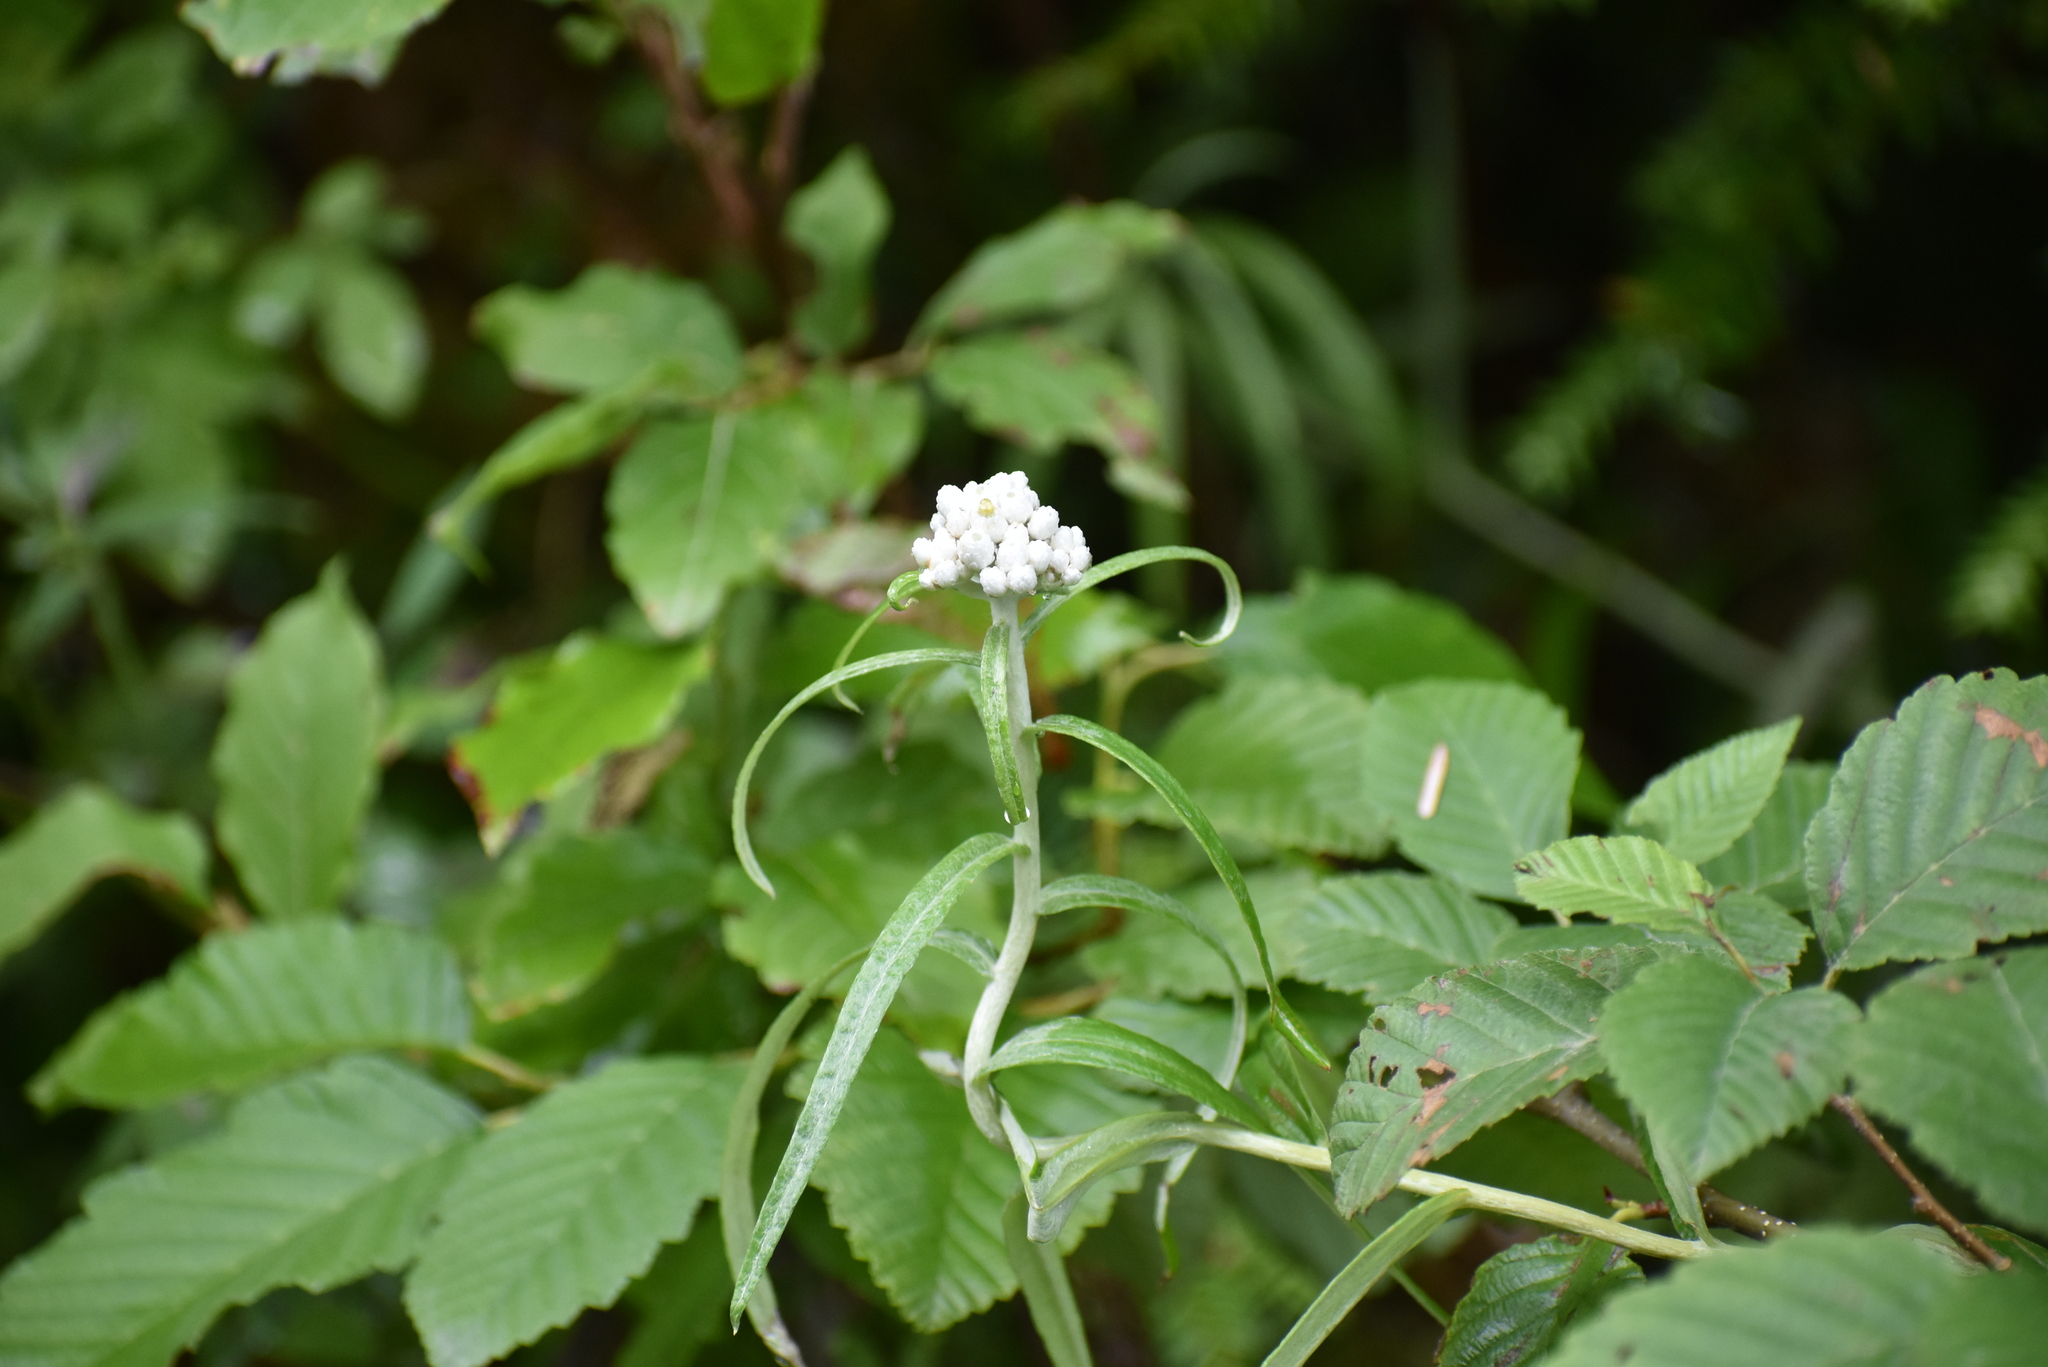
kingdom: Plantae
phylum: Tracheophyta
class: Magnoliopsida
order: Asterales
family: Asteraceae
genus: Anaphalis
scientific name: Anaphalis margaritacea
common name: Pearly everlasting
